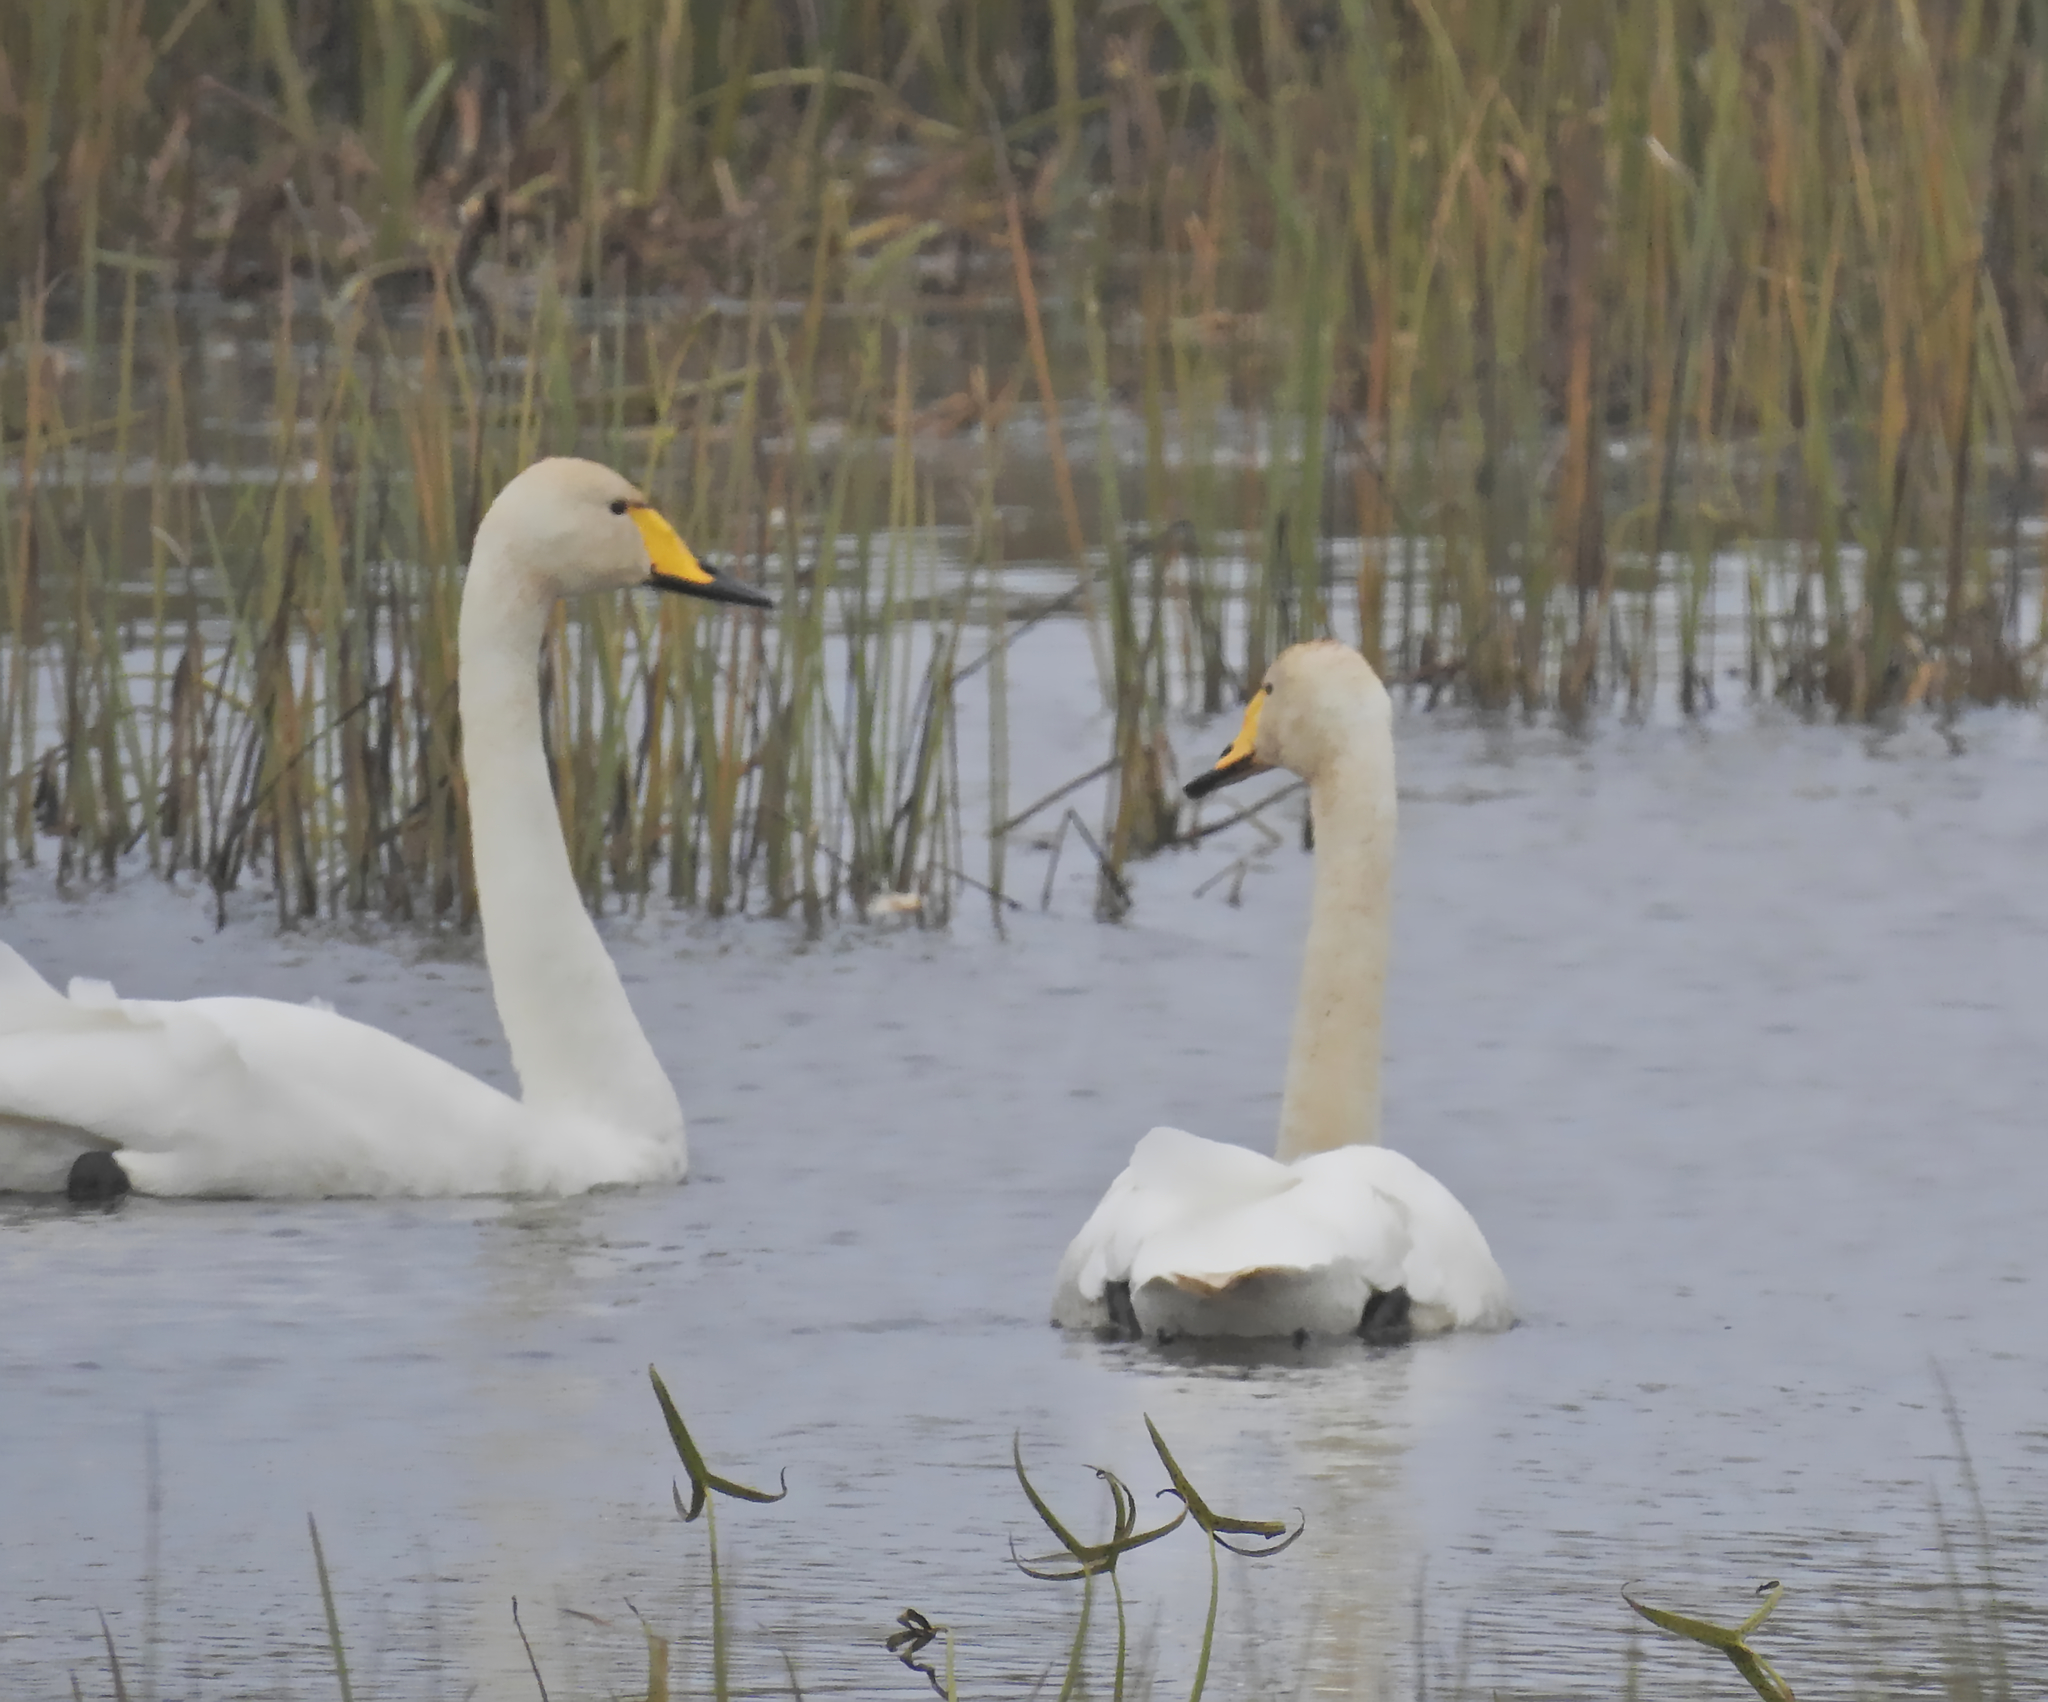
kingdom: Animalia
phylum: Chordata
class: Aves
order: Anseriformes
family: Anatidae
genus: Cygnus
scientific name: Cygnus cygnus
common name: Whooper swan
